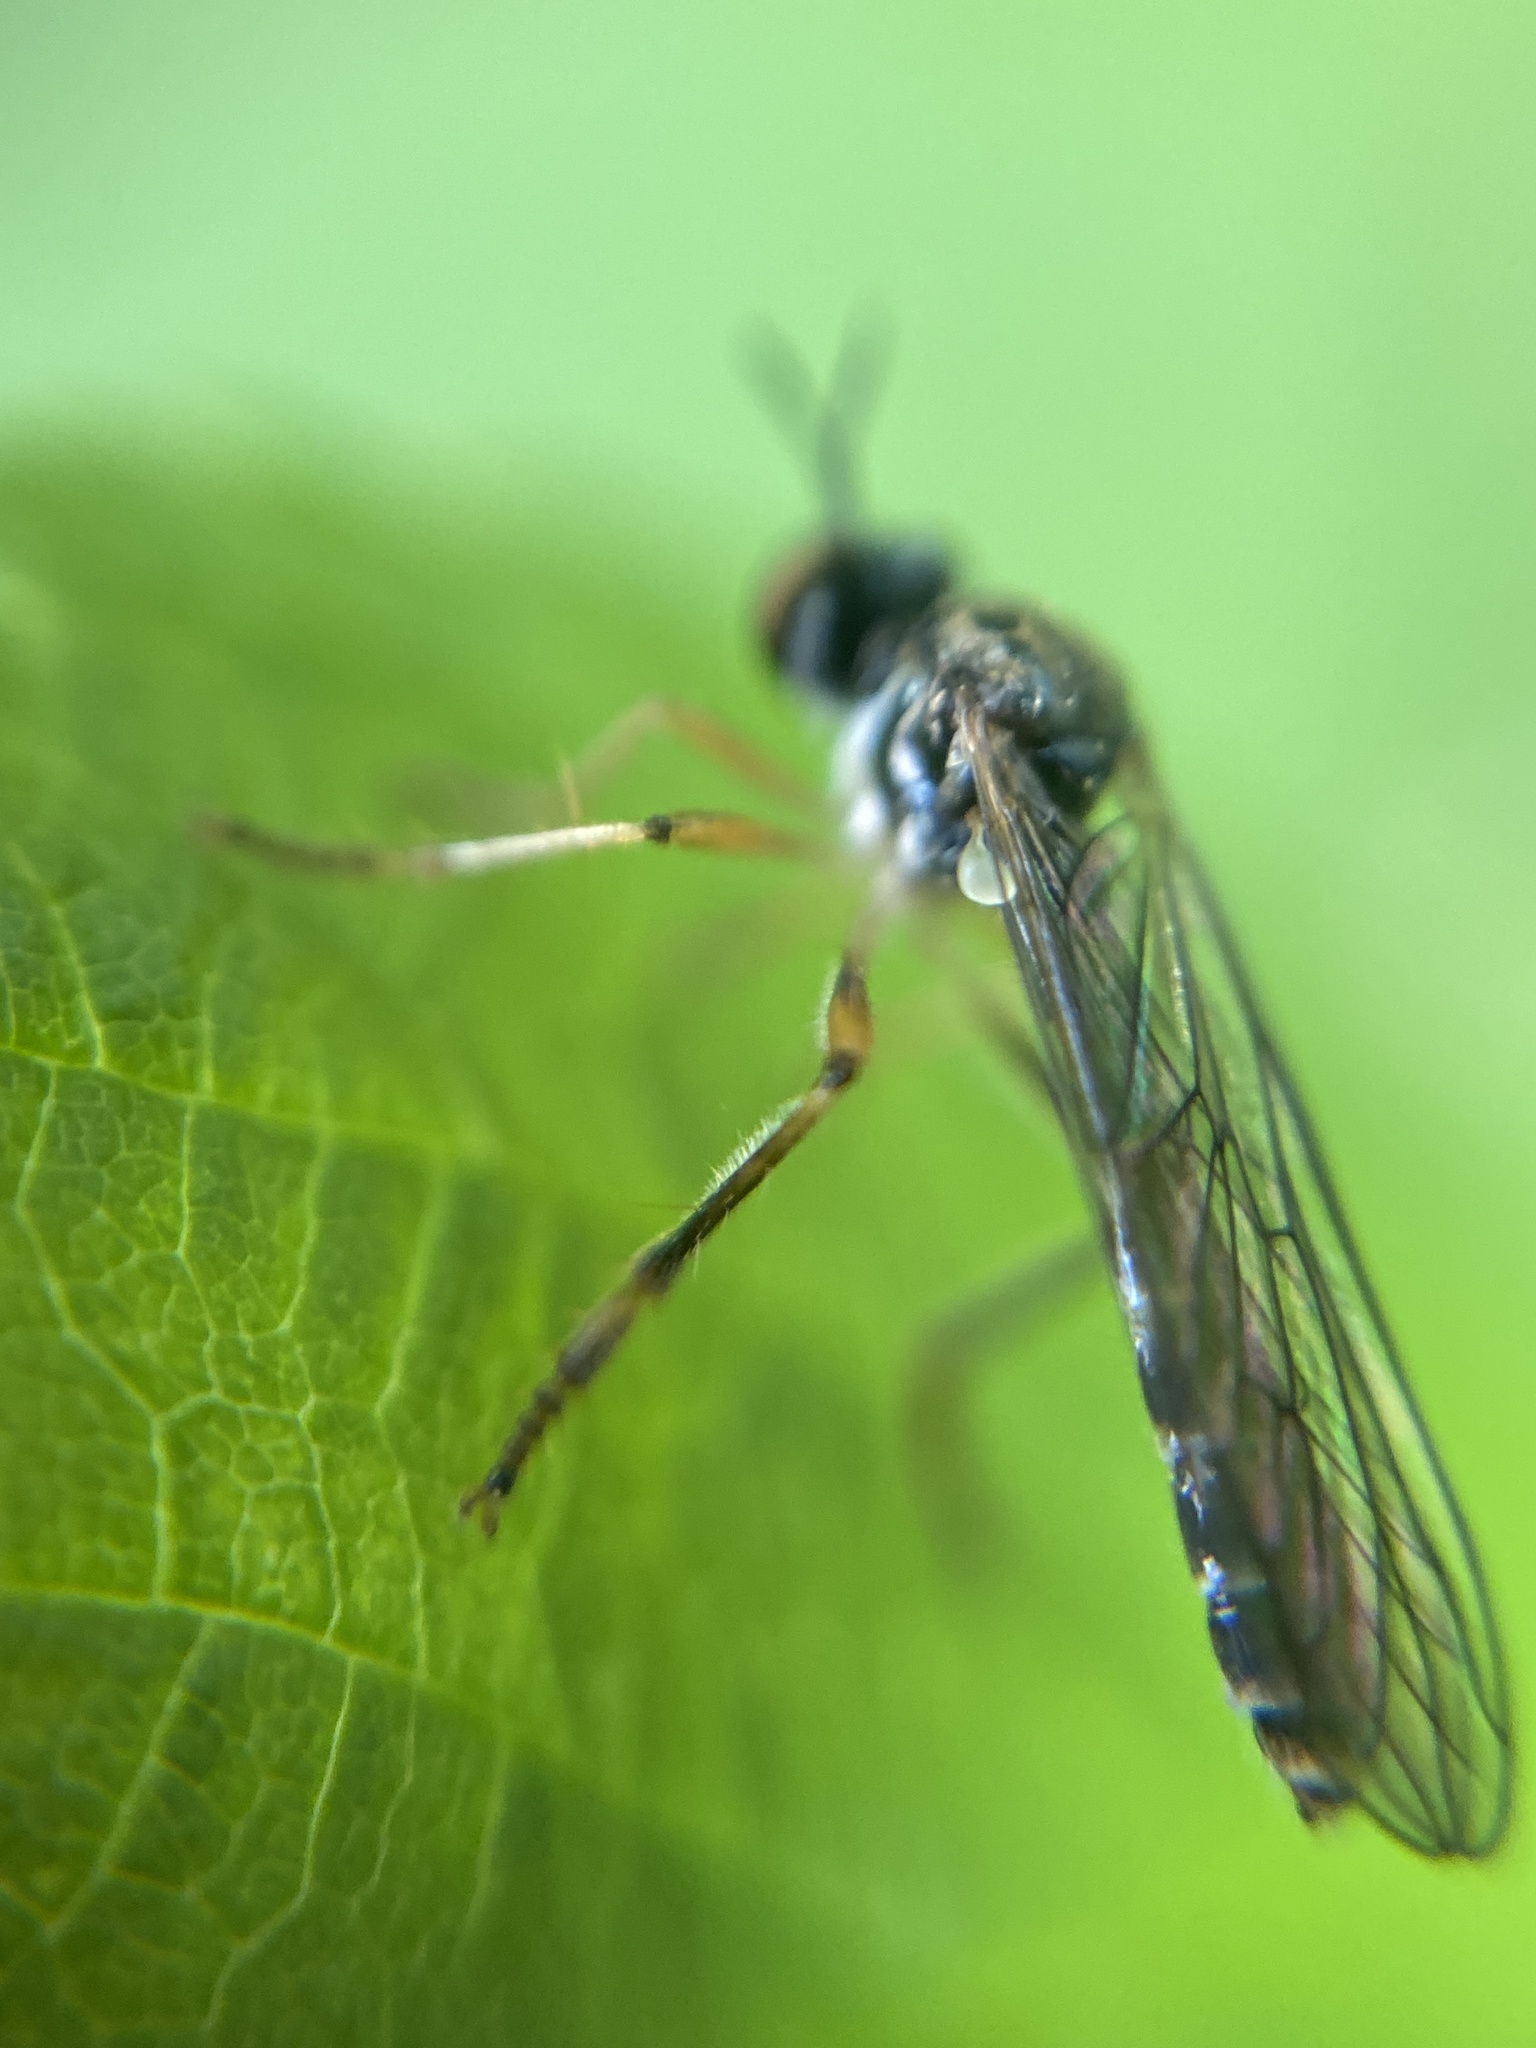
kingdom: Animalia
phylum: Arthropoda
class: Insecta
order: Diptera
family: Asilidae
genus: Dioctria
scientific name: Dioctria linearis
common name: Small yellow-legged robberfly
